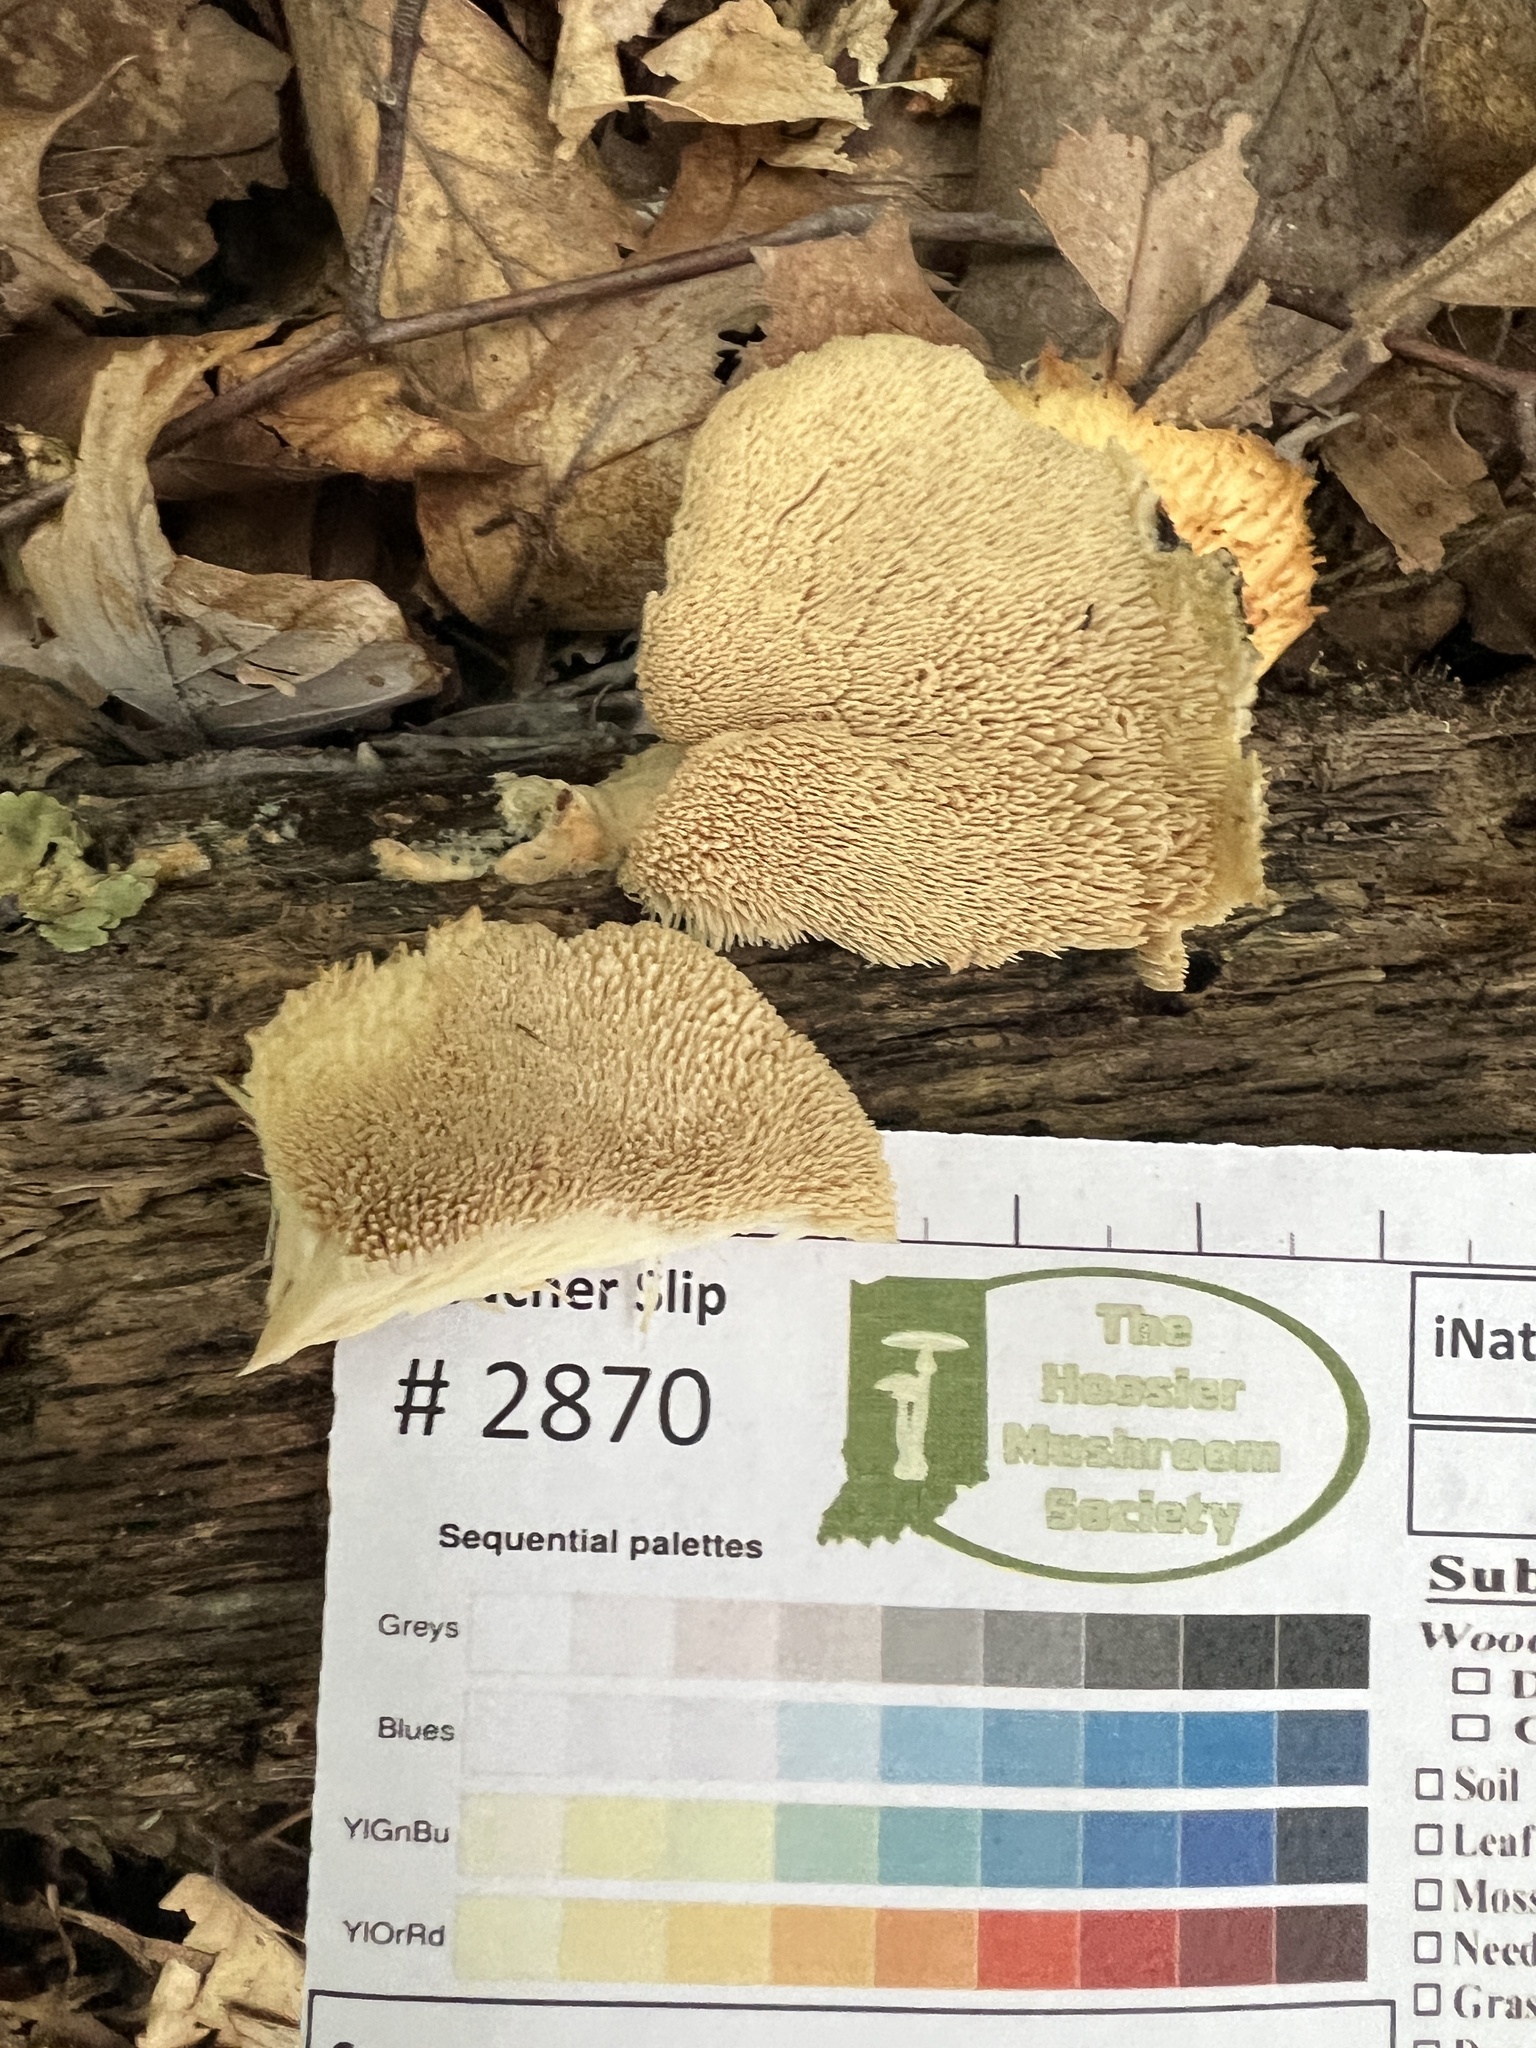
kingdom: Fungi
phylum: Basidiomycota
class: Agaricomycetes
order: Polyporales
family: Meruliaceae
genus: Donkia
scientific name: Donkia pulcherrima
